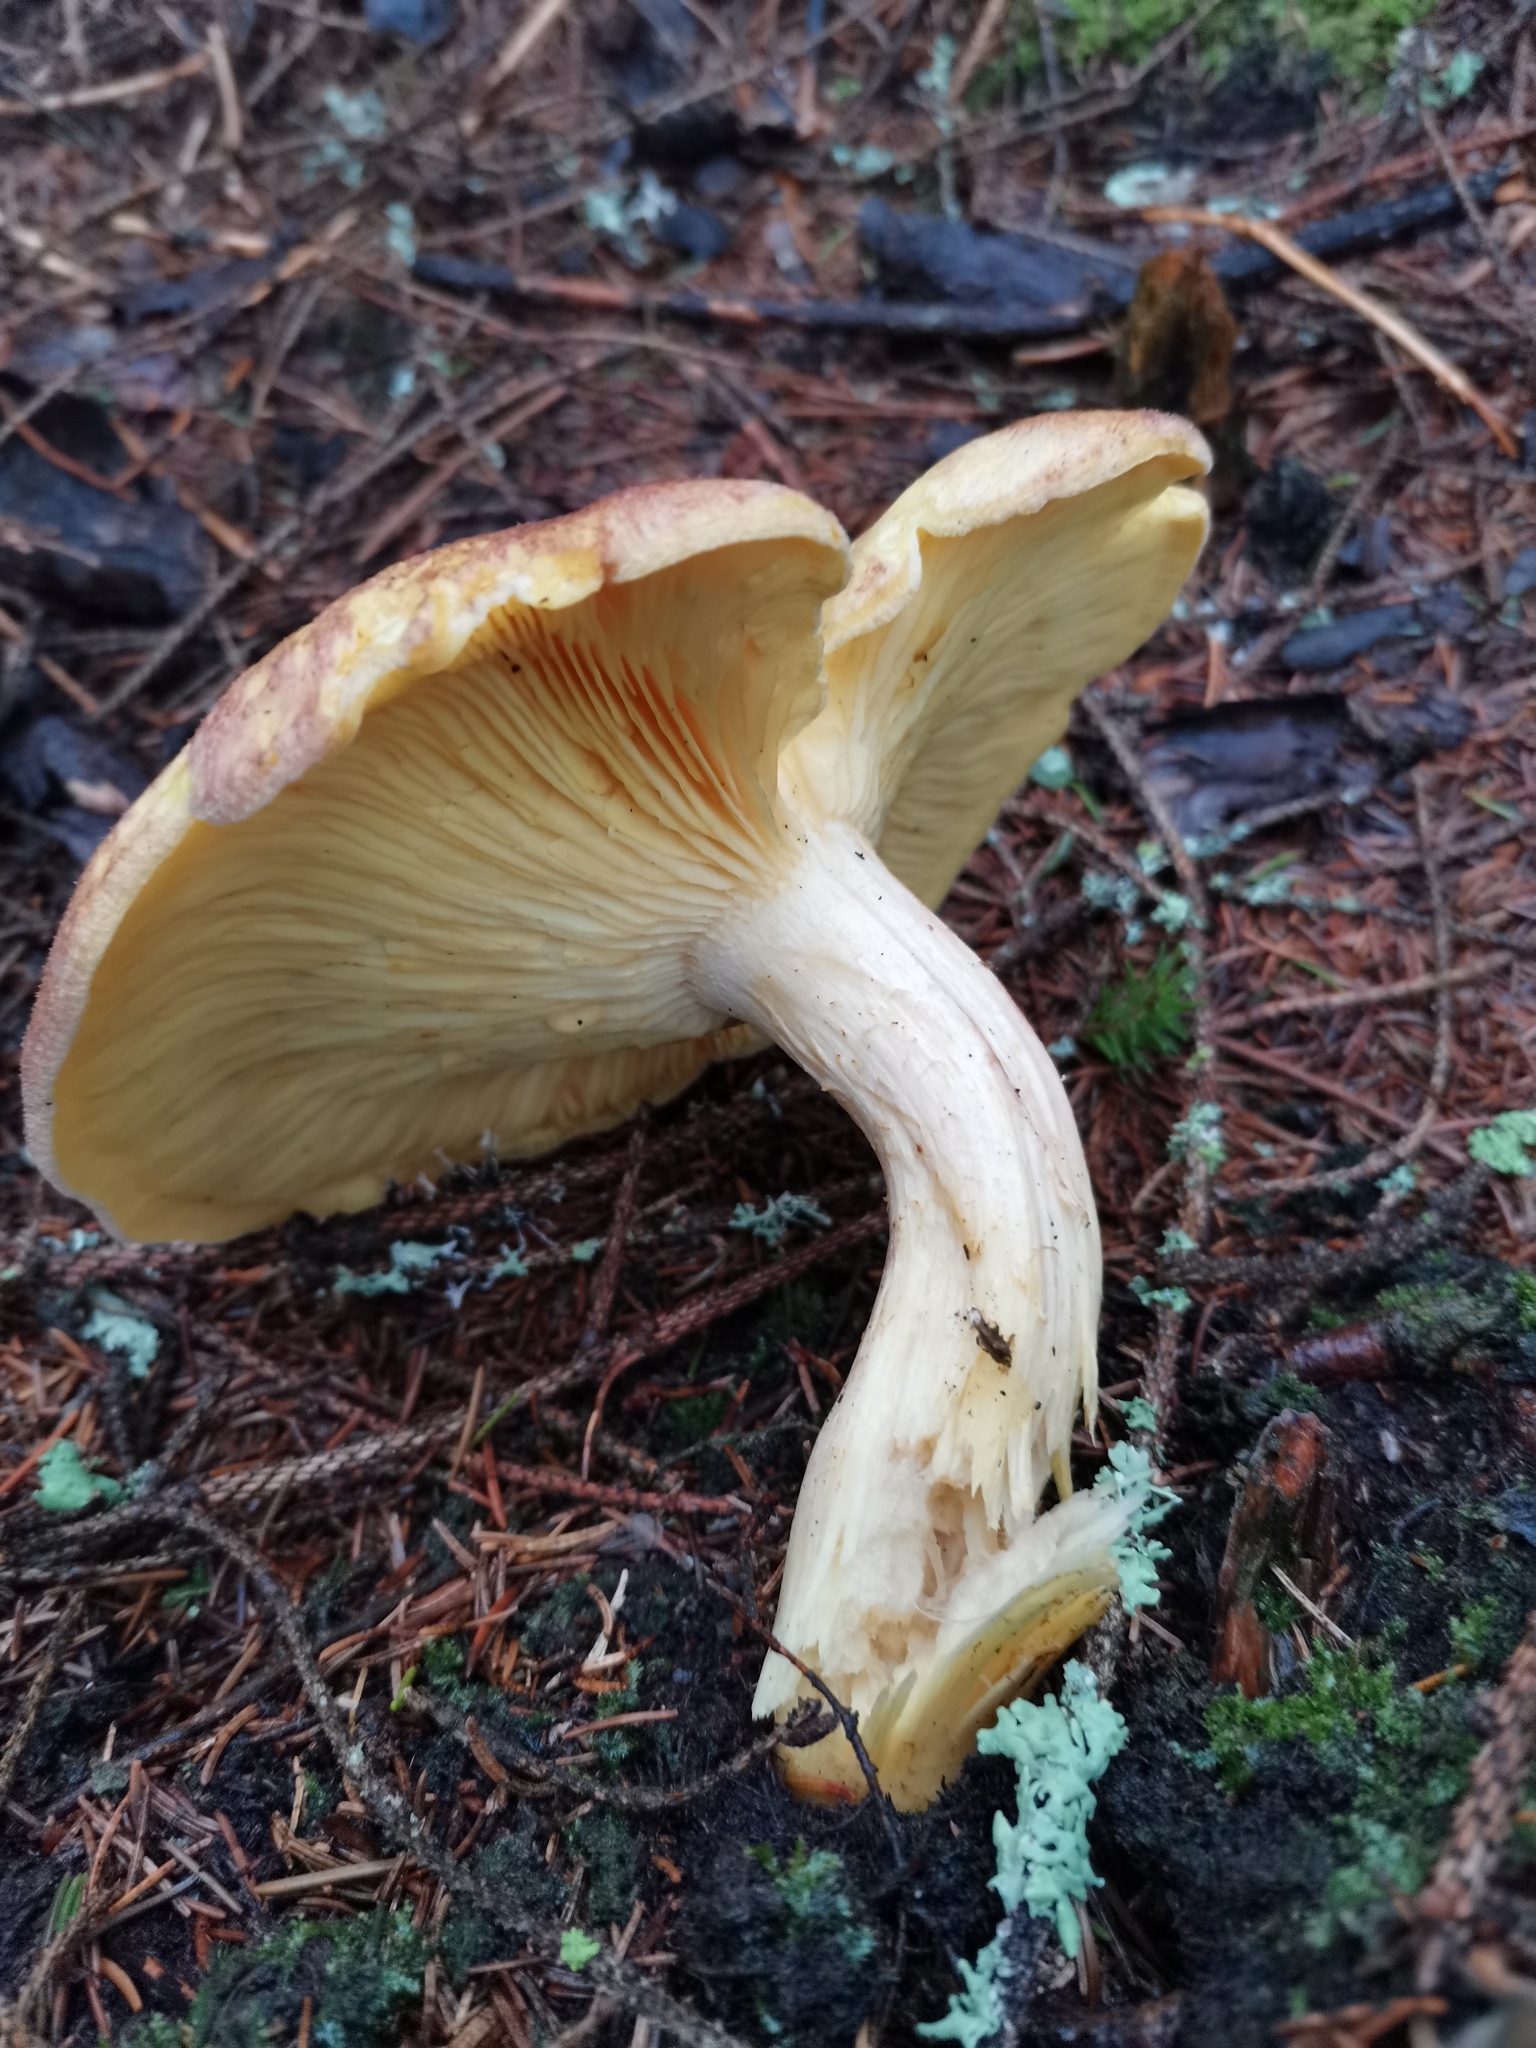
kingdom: Fungi
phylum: Basidiomycota
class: Agaricomycetes
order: Agaricales
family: Tricholomataceae
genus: Tricholomopsis
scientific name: Tricholomopsis rutilans
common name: Plums and custard
